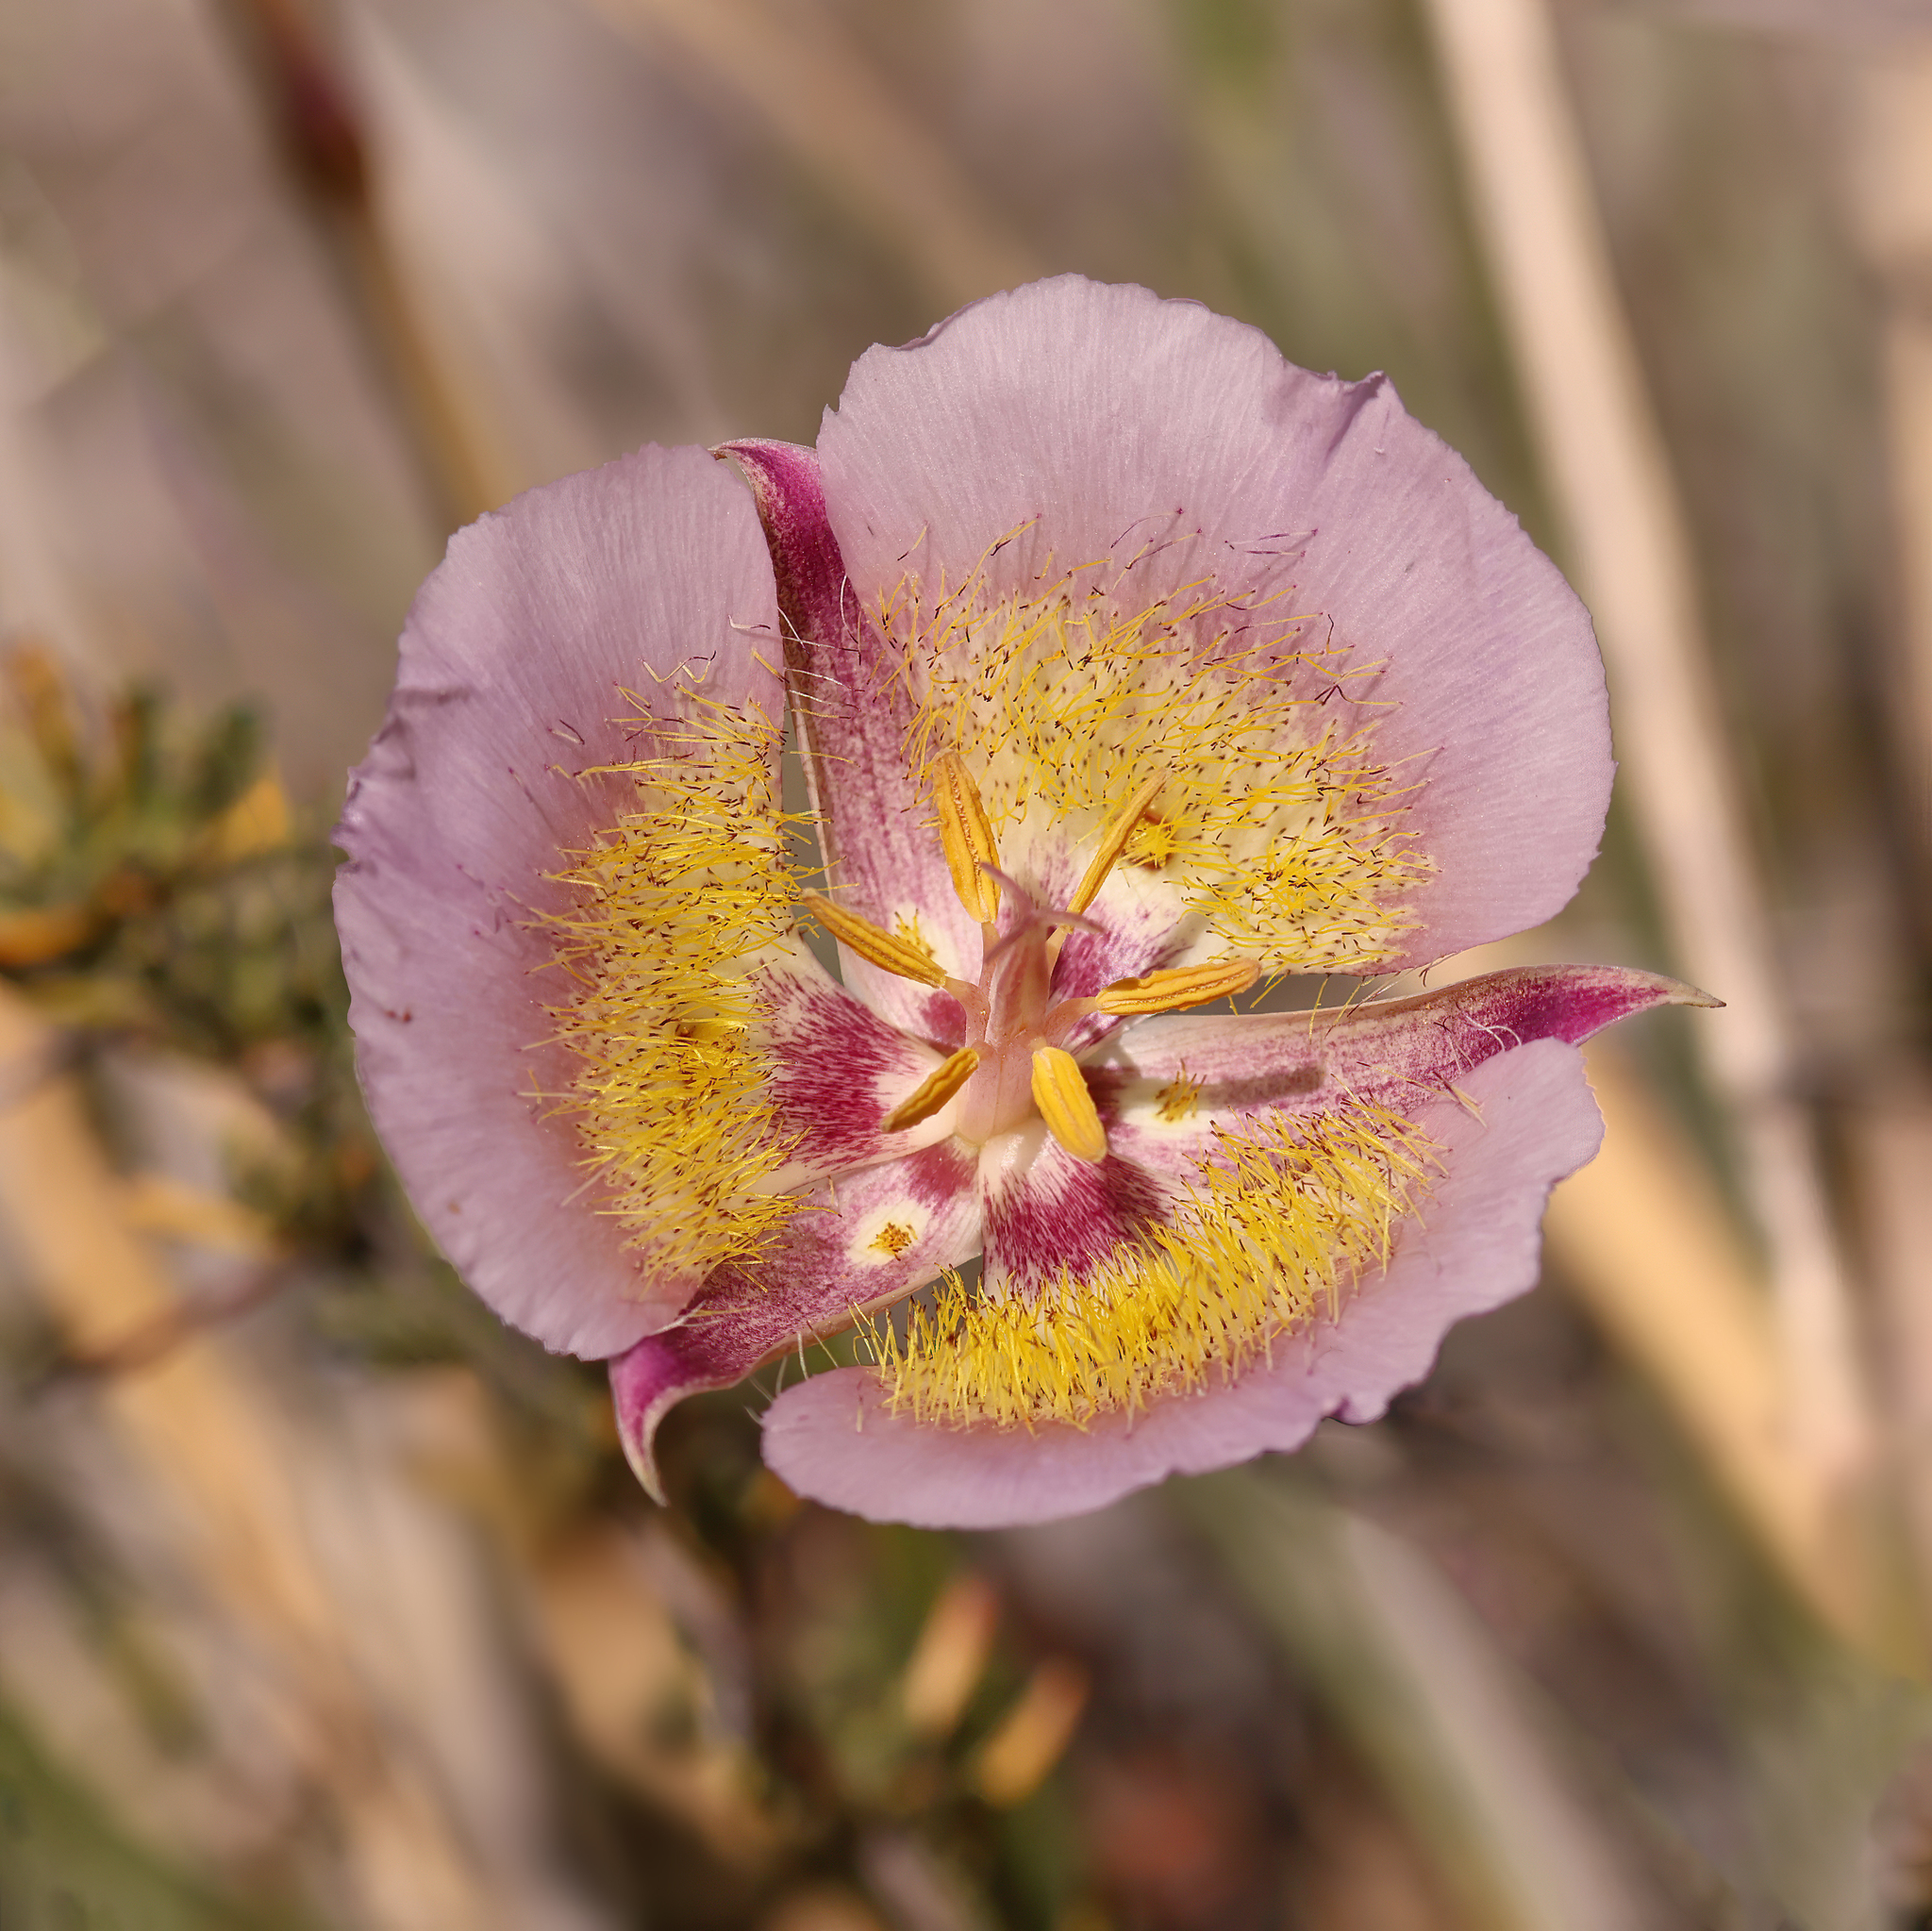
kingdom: Plantae
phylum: Tracheophyta
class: Liliopsida
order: Liliales
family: Liliaceae
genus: Calochortus
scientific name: Calochortus plummerae
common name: Plummer's mariposa-lily
